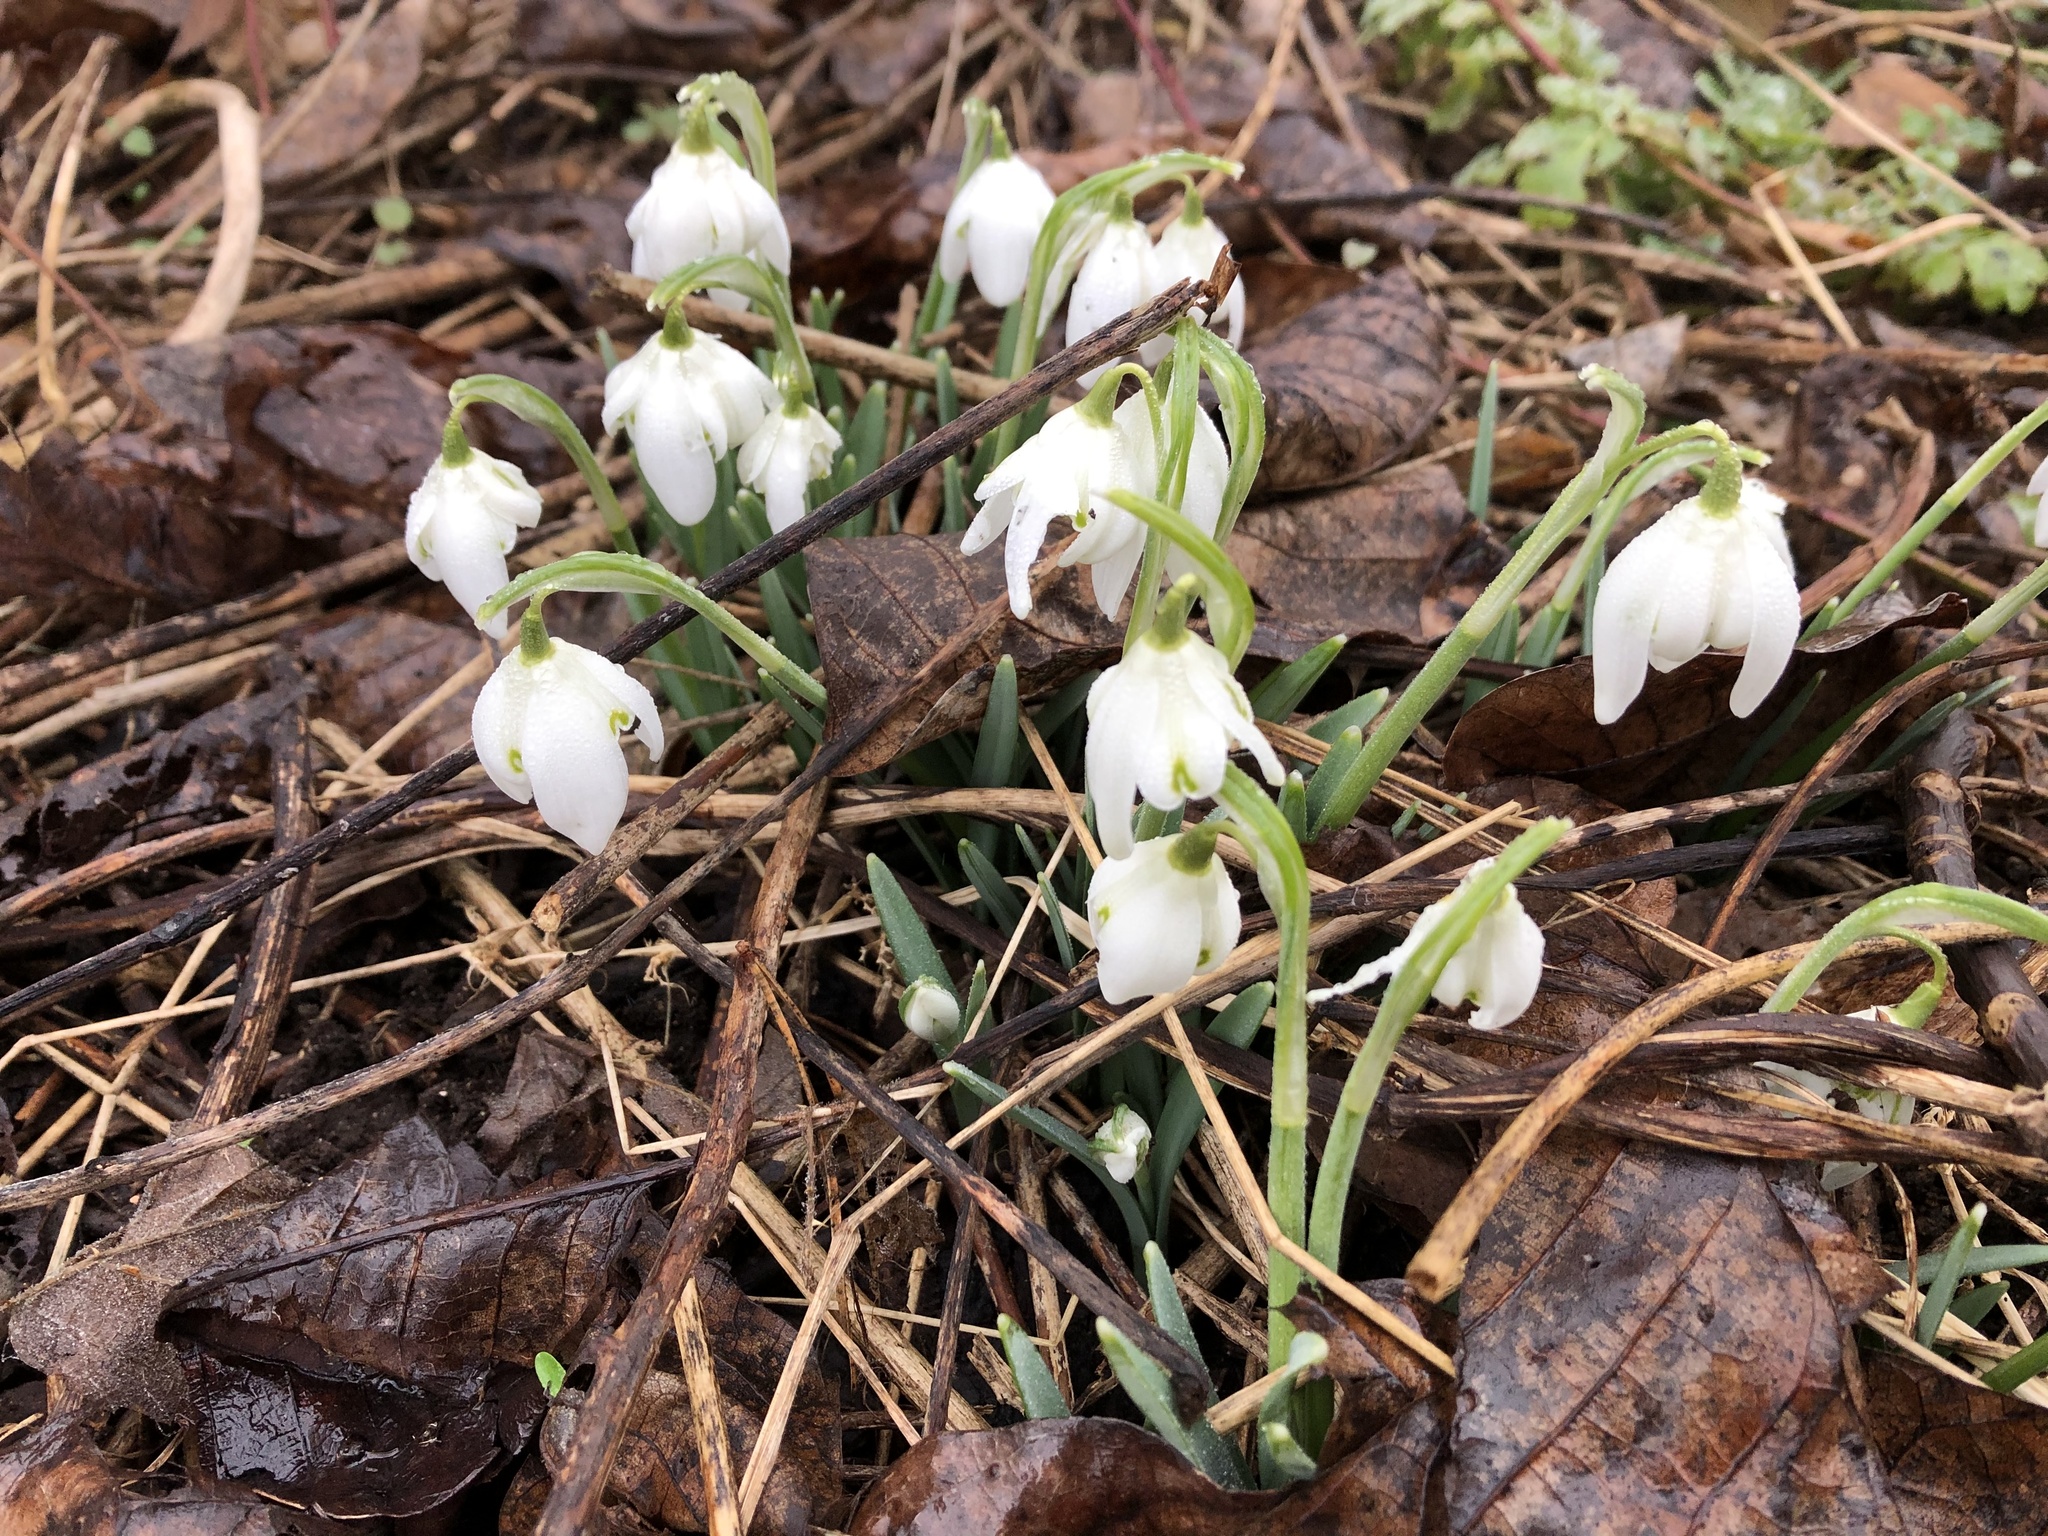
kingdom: Plantae
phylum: Tracheophyta
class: Liliopsida
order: Asparagales
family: Amaryllidaceae
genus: Galanthus
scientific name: Galanthus nivalis
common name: Snowdrop
